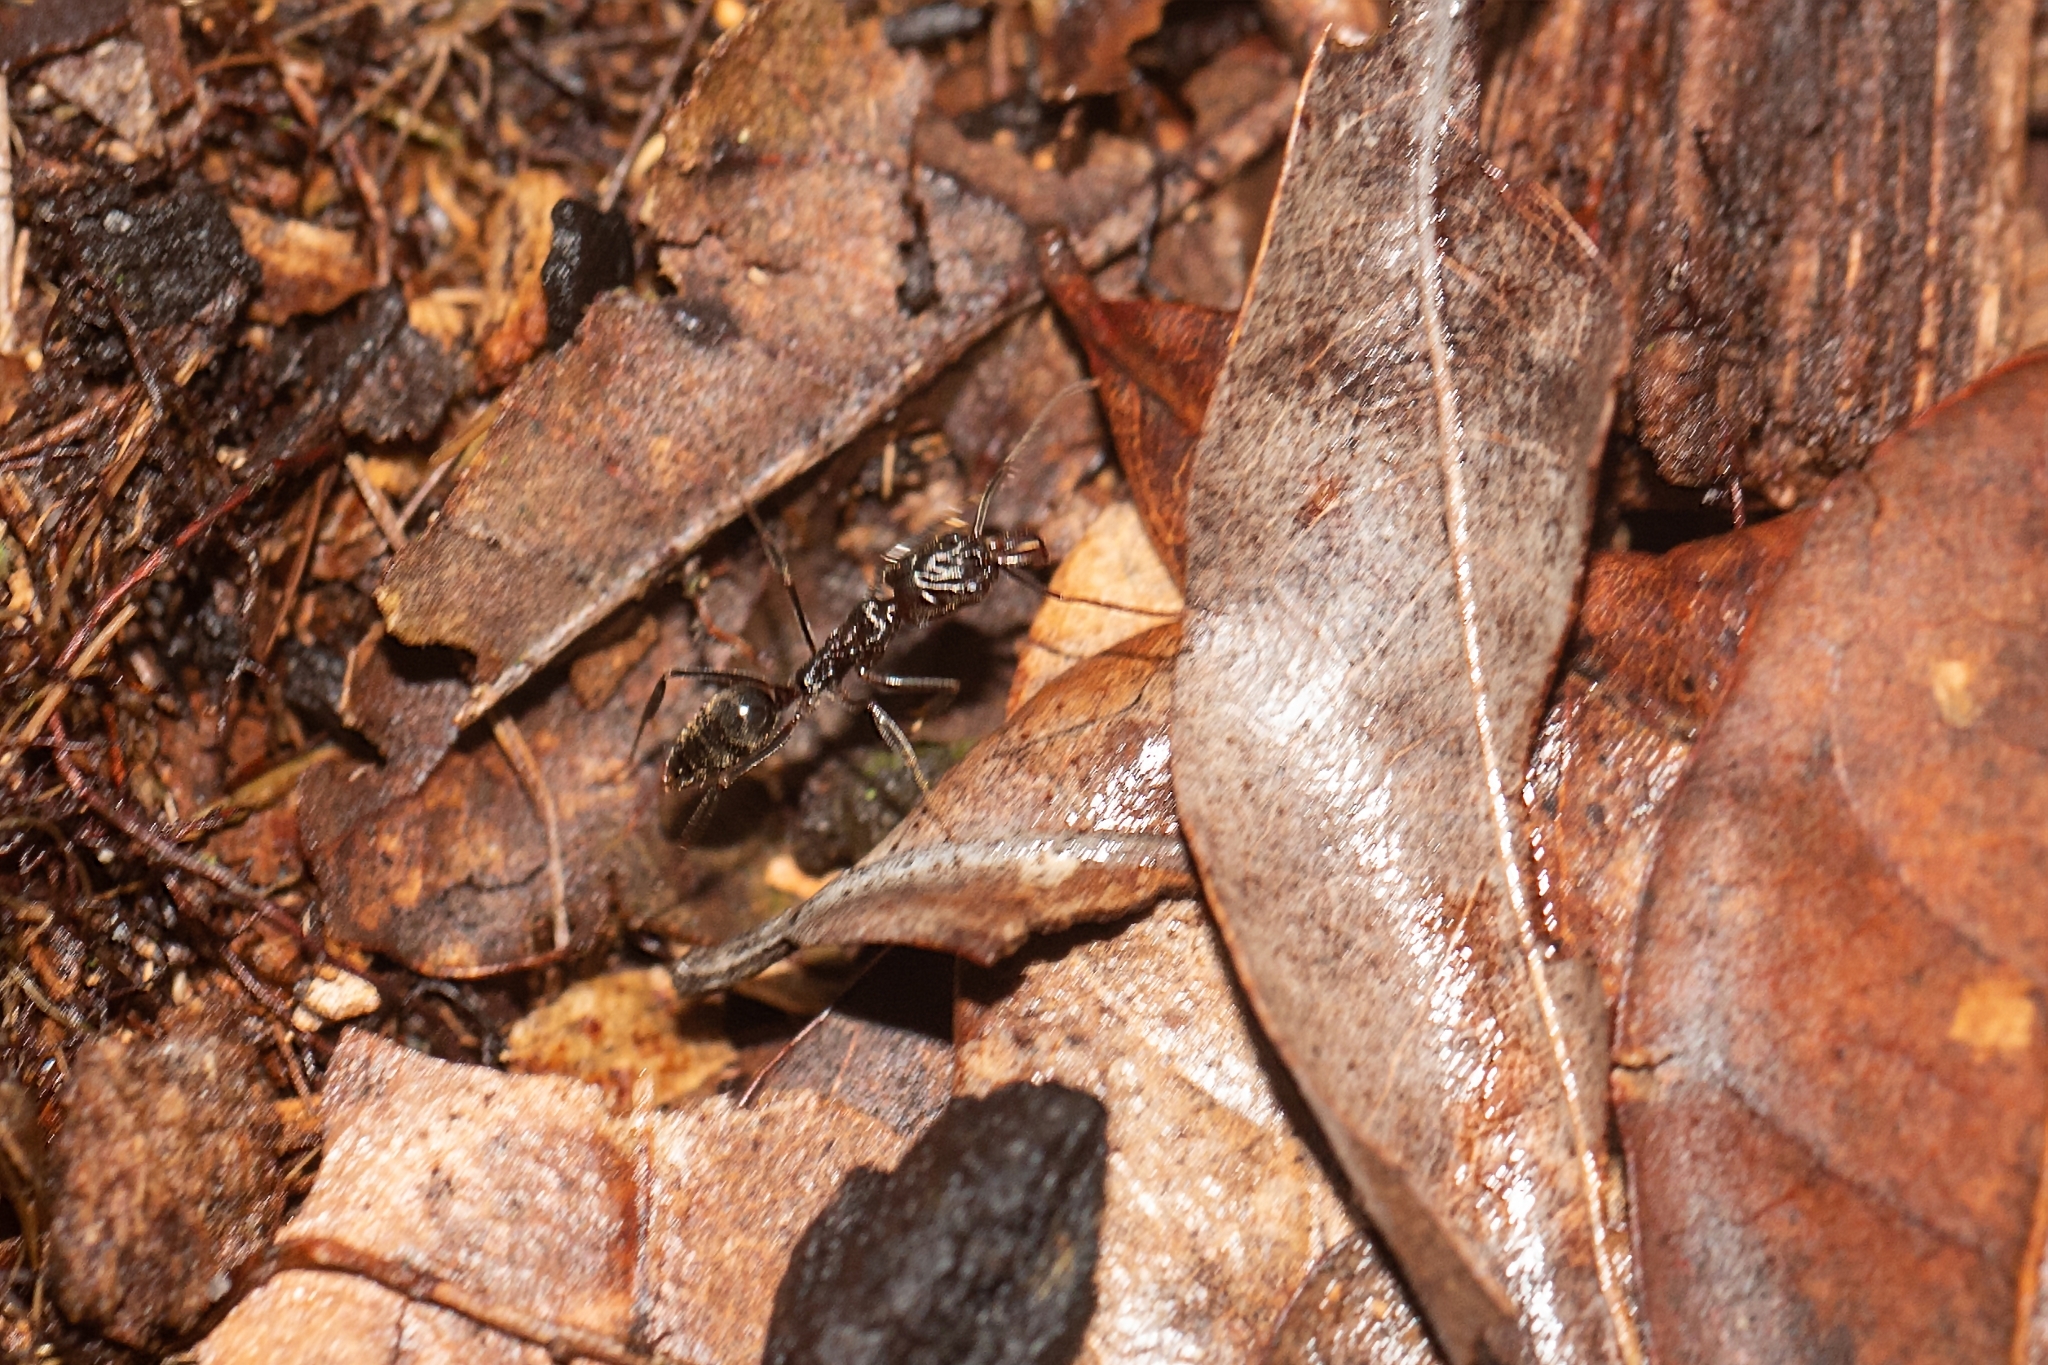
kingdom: Animalia
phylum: Arthropoda
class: Insecta
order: Hymenoptera
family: Formicidae
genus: Odontomachus
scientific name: Odontomachus brunneus
